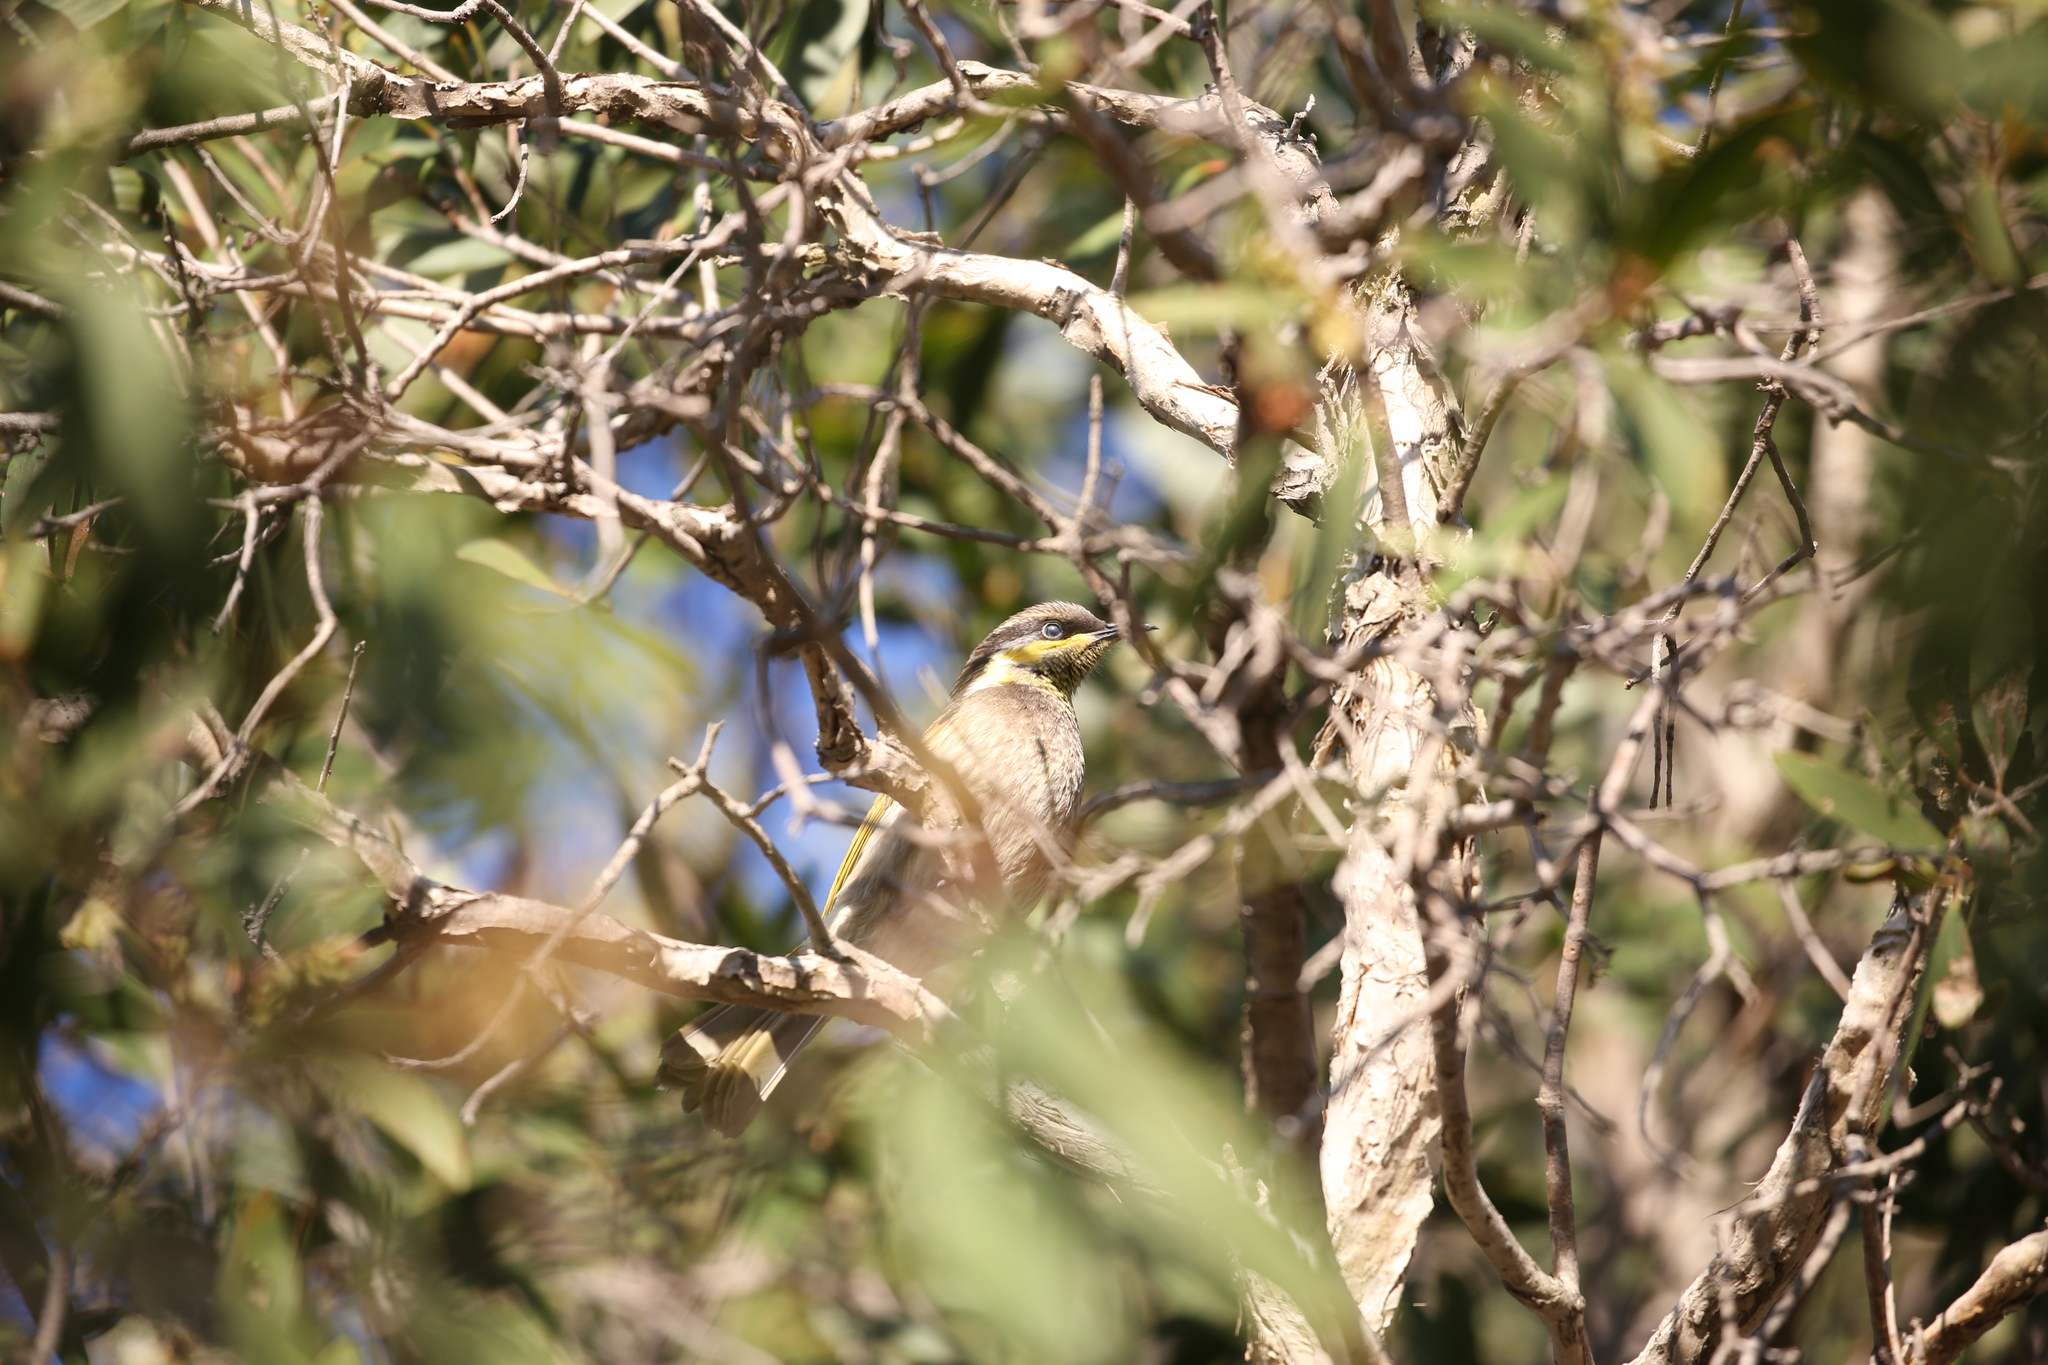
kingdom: Animalia
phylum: Chordata
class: Aves
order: Passeriformes
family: Meliphagidae
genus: Gavicalis
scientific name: Gavicalis fasciogularis
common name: Mangrove honeyeater
